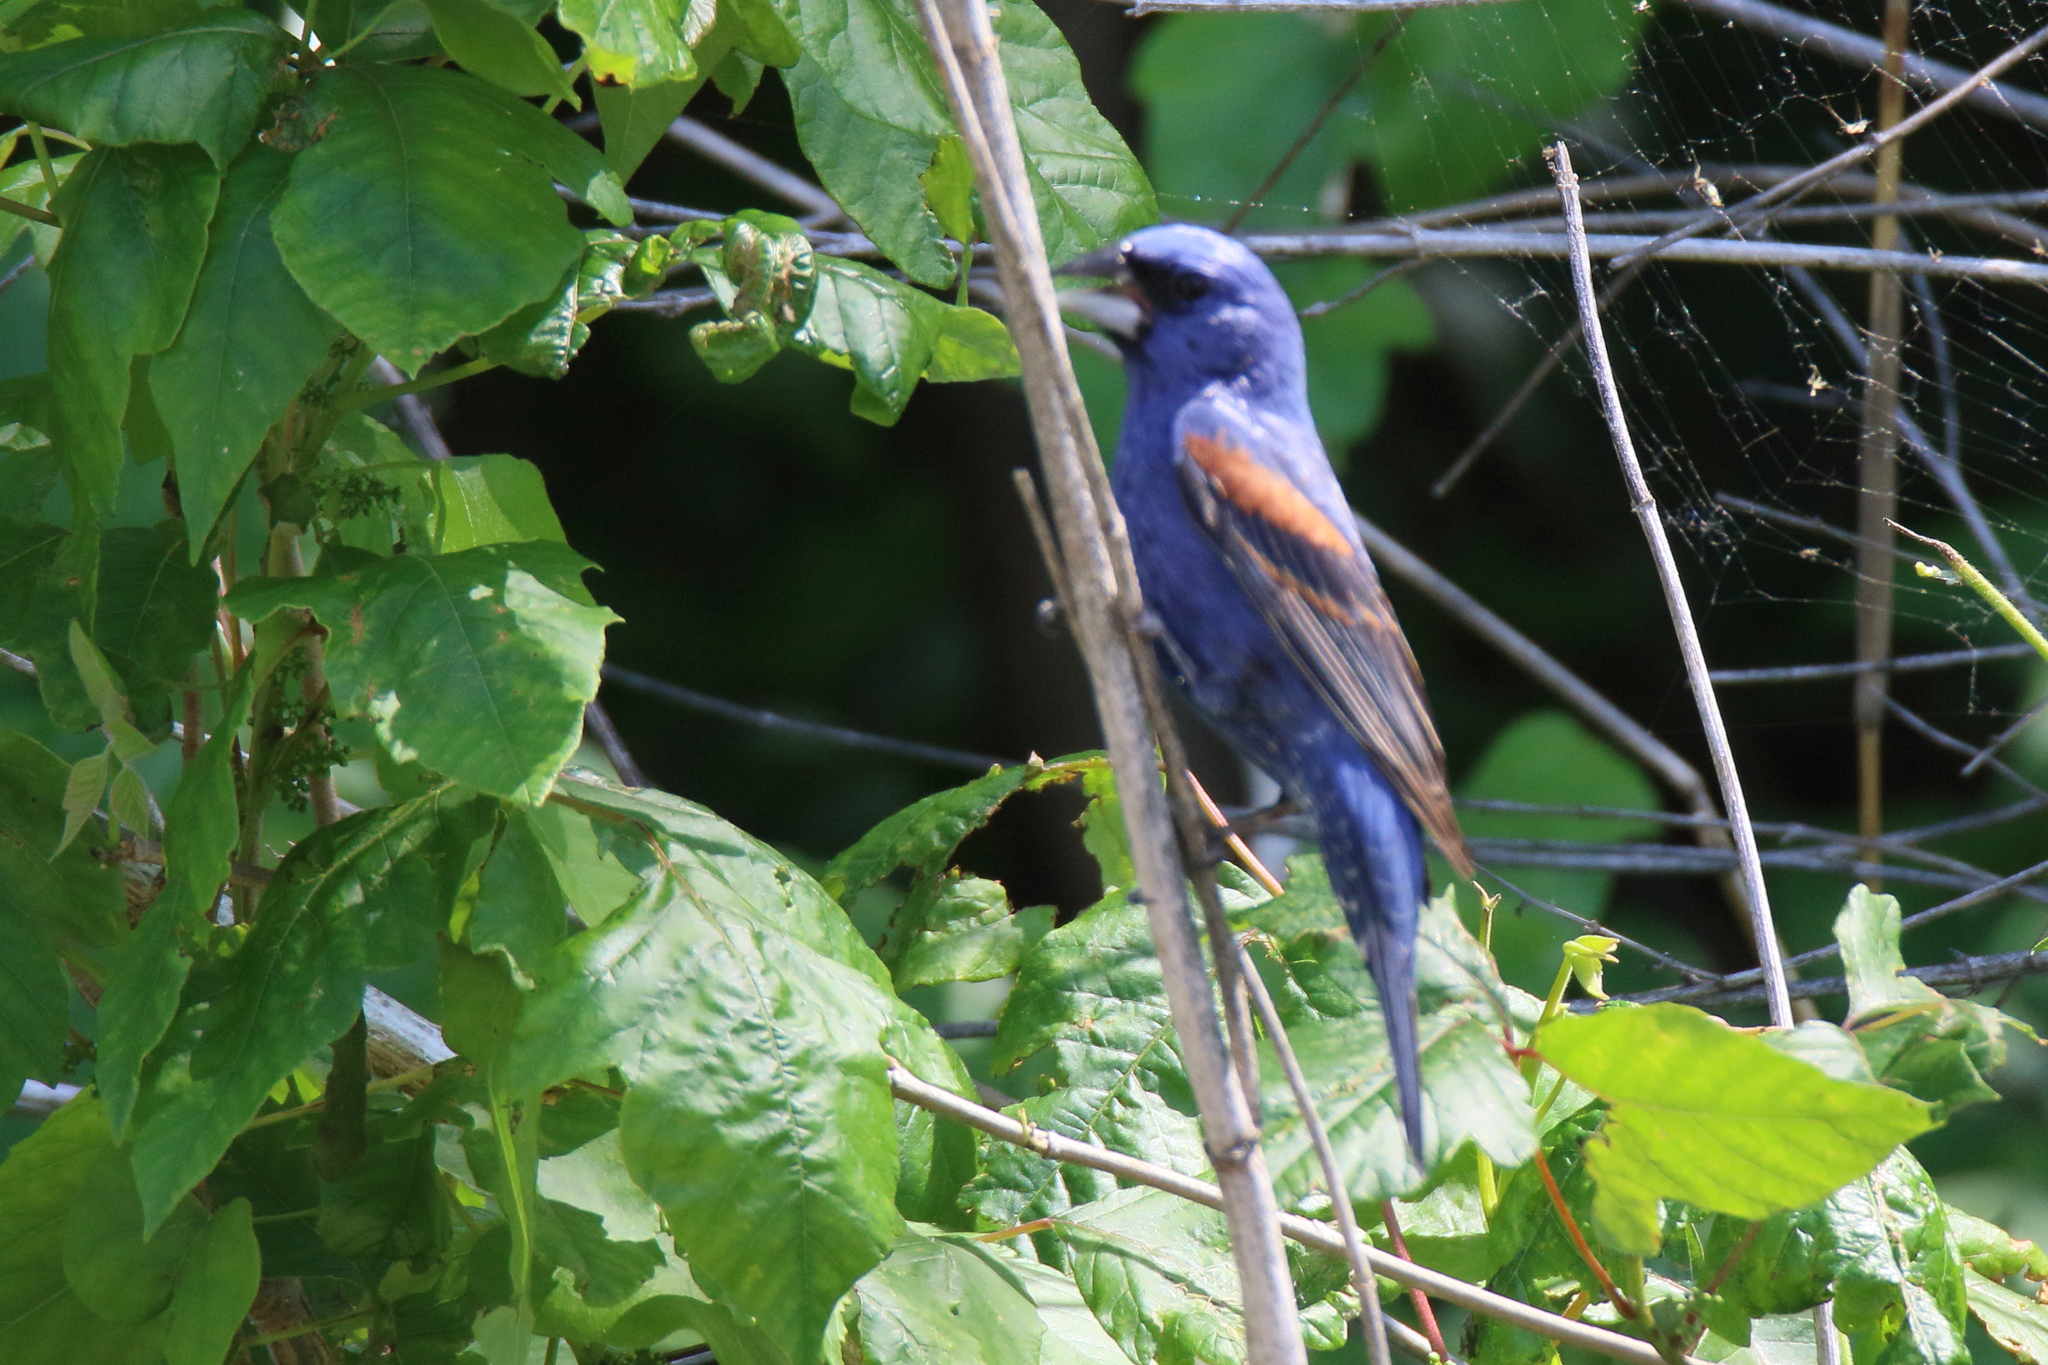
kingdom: Animalia
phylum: Chordata
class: Aves
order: Passeriformes
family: Cardinalidae
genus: Passerina
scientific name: Passerina caerulea
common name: Blue grosbeak
